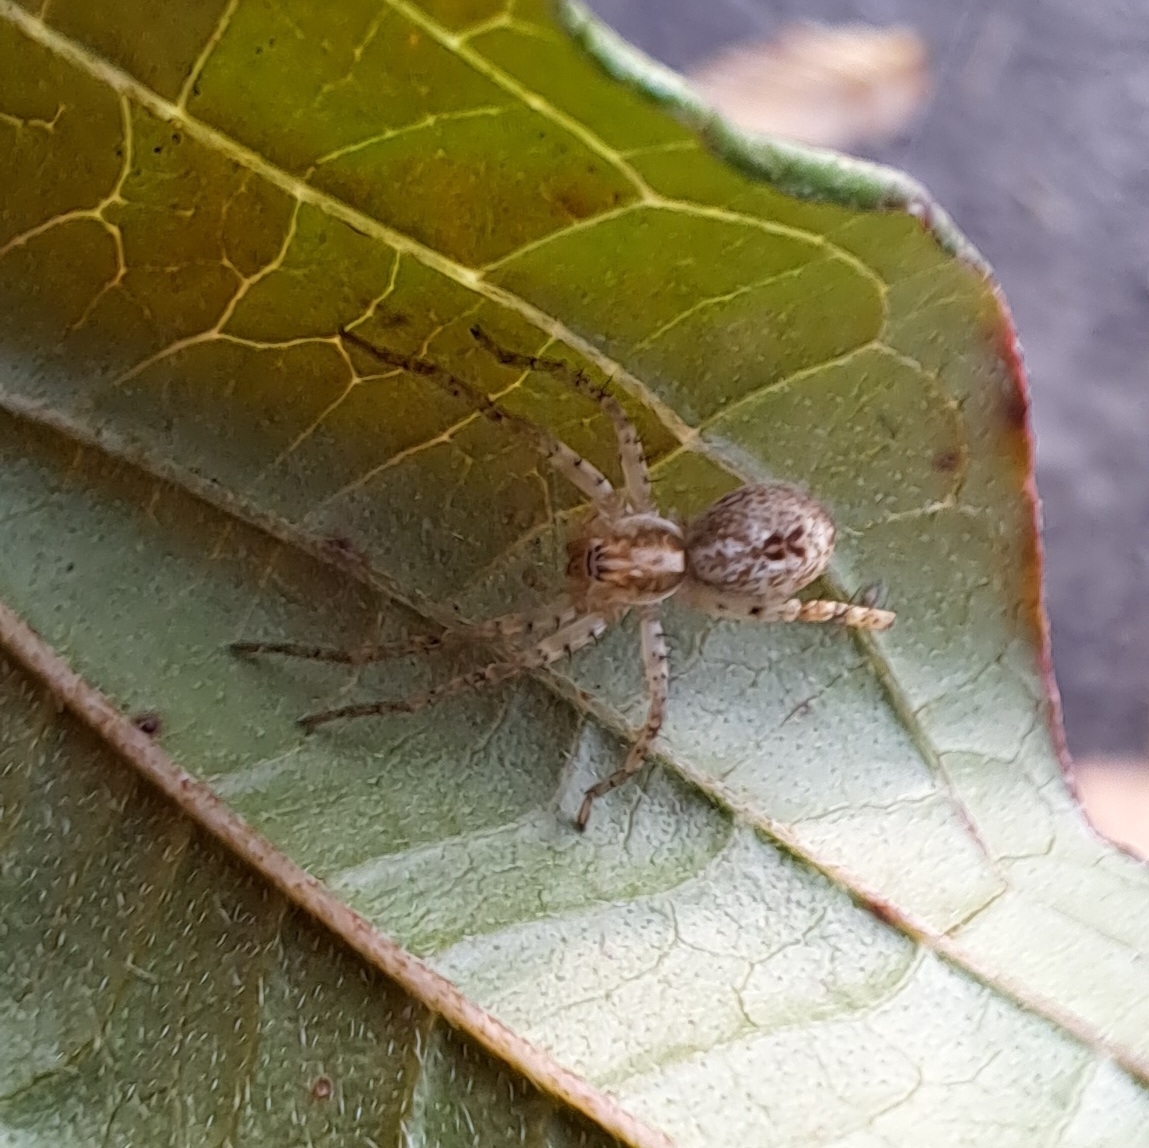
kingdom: Animalia
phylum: Arthropoda
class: Arachnida
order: Araneae
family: Anyphaenidae
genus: Anyphaena
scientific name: Anyphaena accentuata
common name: Buzzing spider
